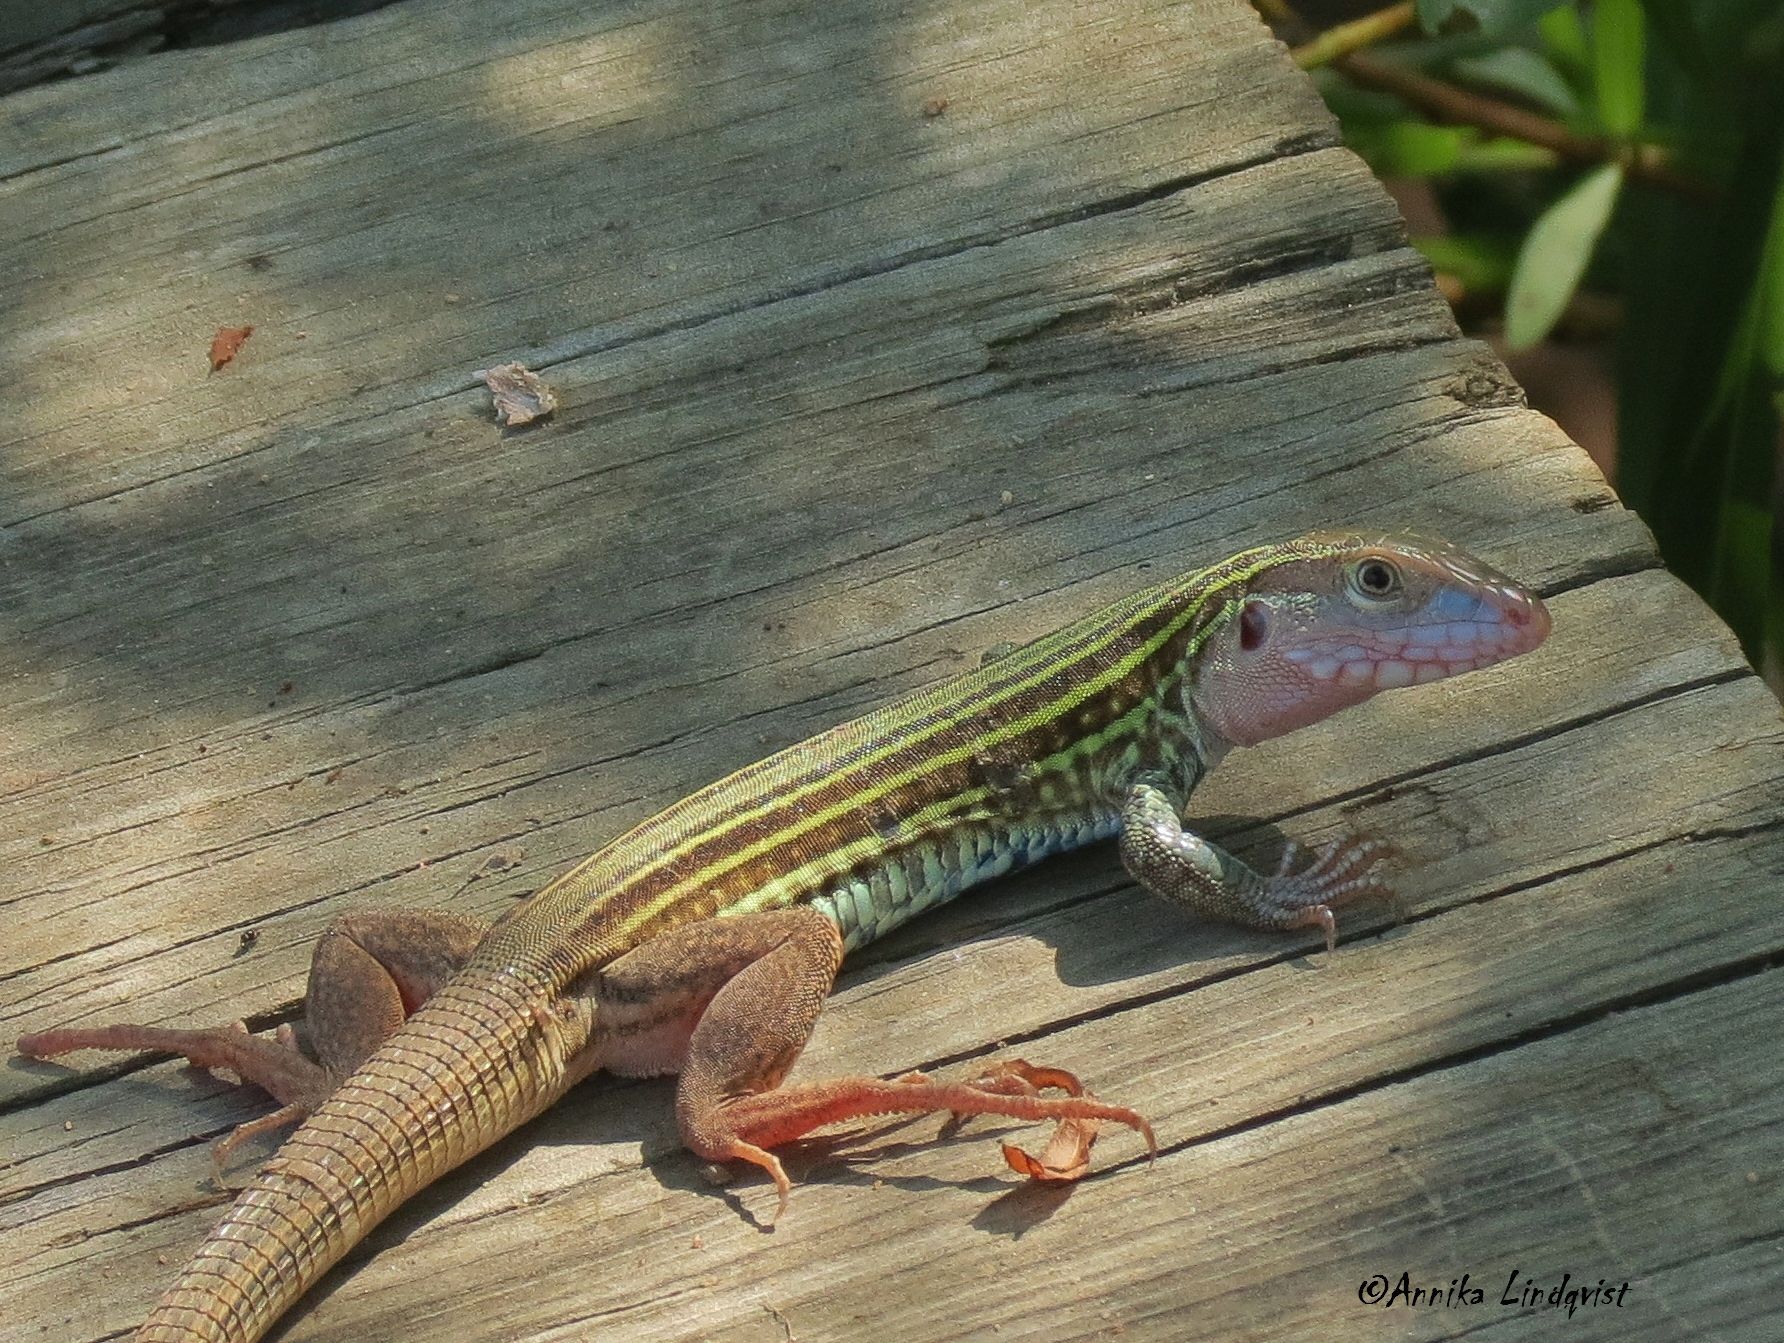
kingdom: Animalia
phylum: Chordata
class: Squamata
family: Teiidae
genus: Aspidoscelis
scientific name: Aspidoscelis gularis
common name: Eastern spotted whiptail
